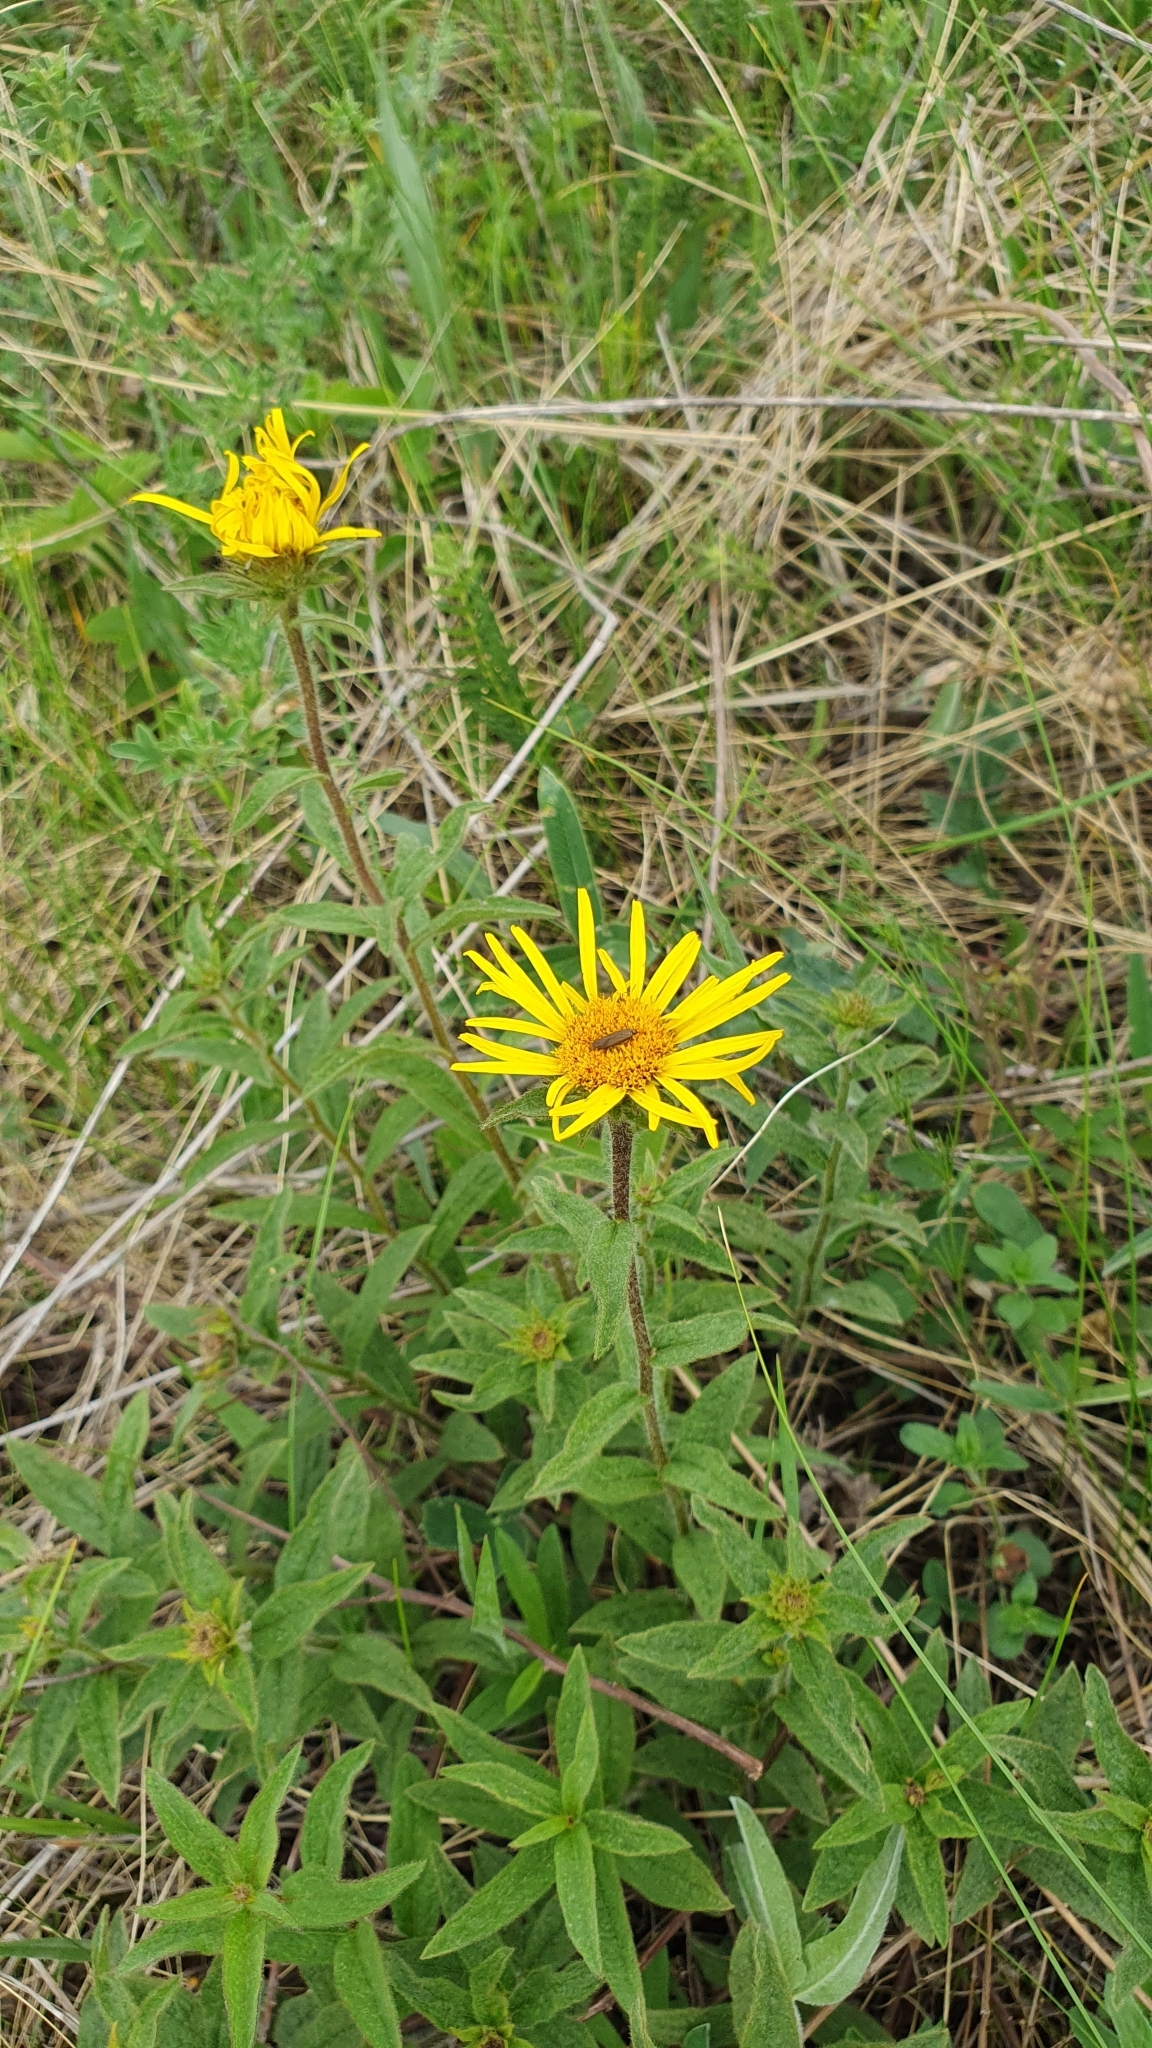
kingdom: Plantae
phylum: Tracheophyta
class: Magnoliopsida
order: Asterales
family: Asteraceae
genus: Pentanema
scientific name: Pentanema hirtum
